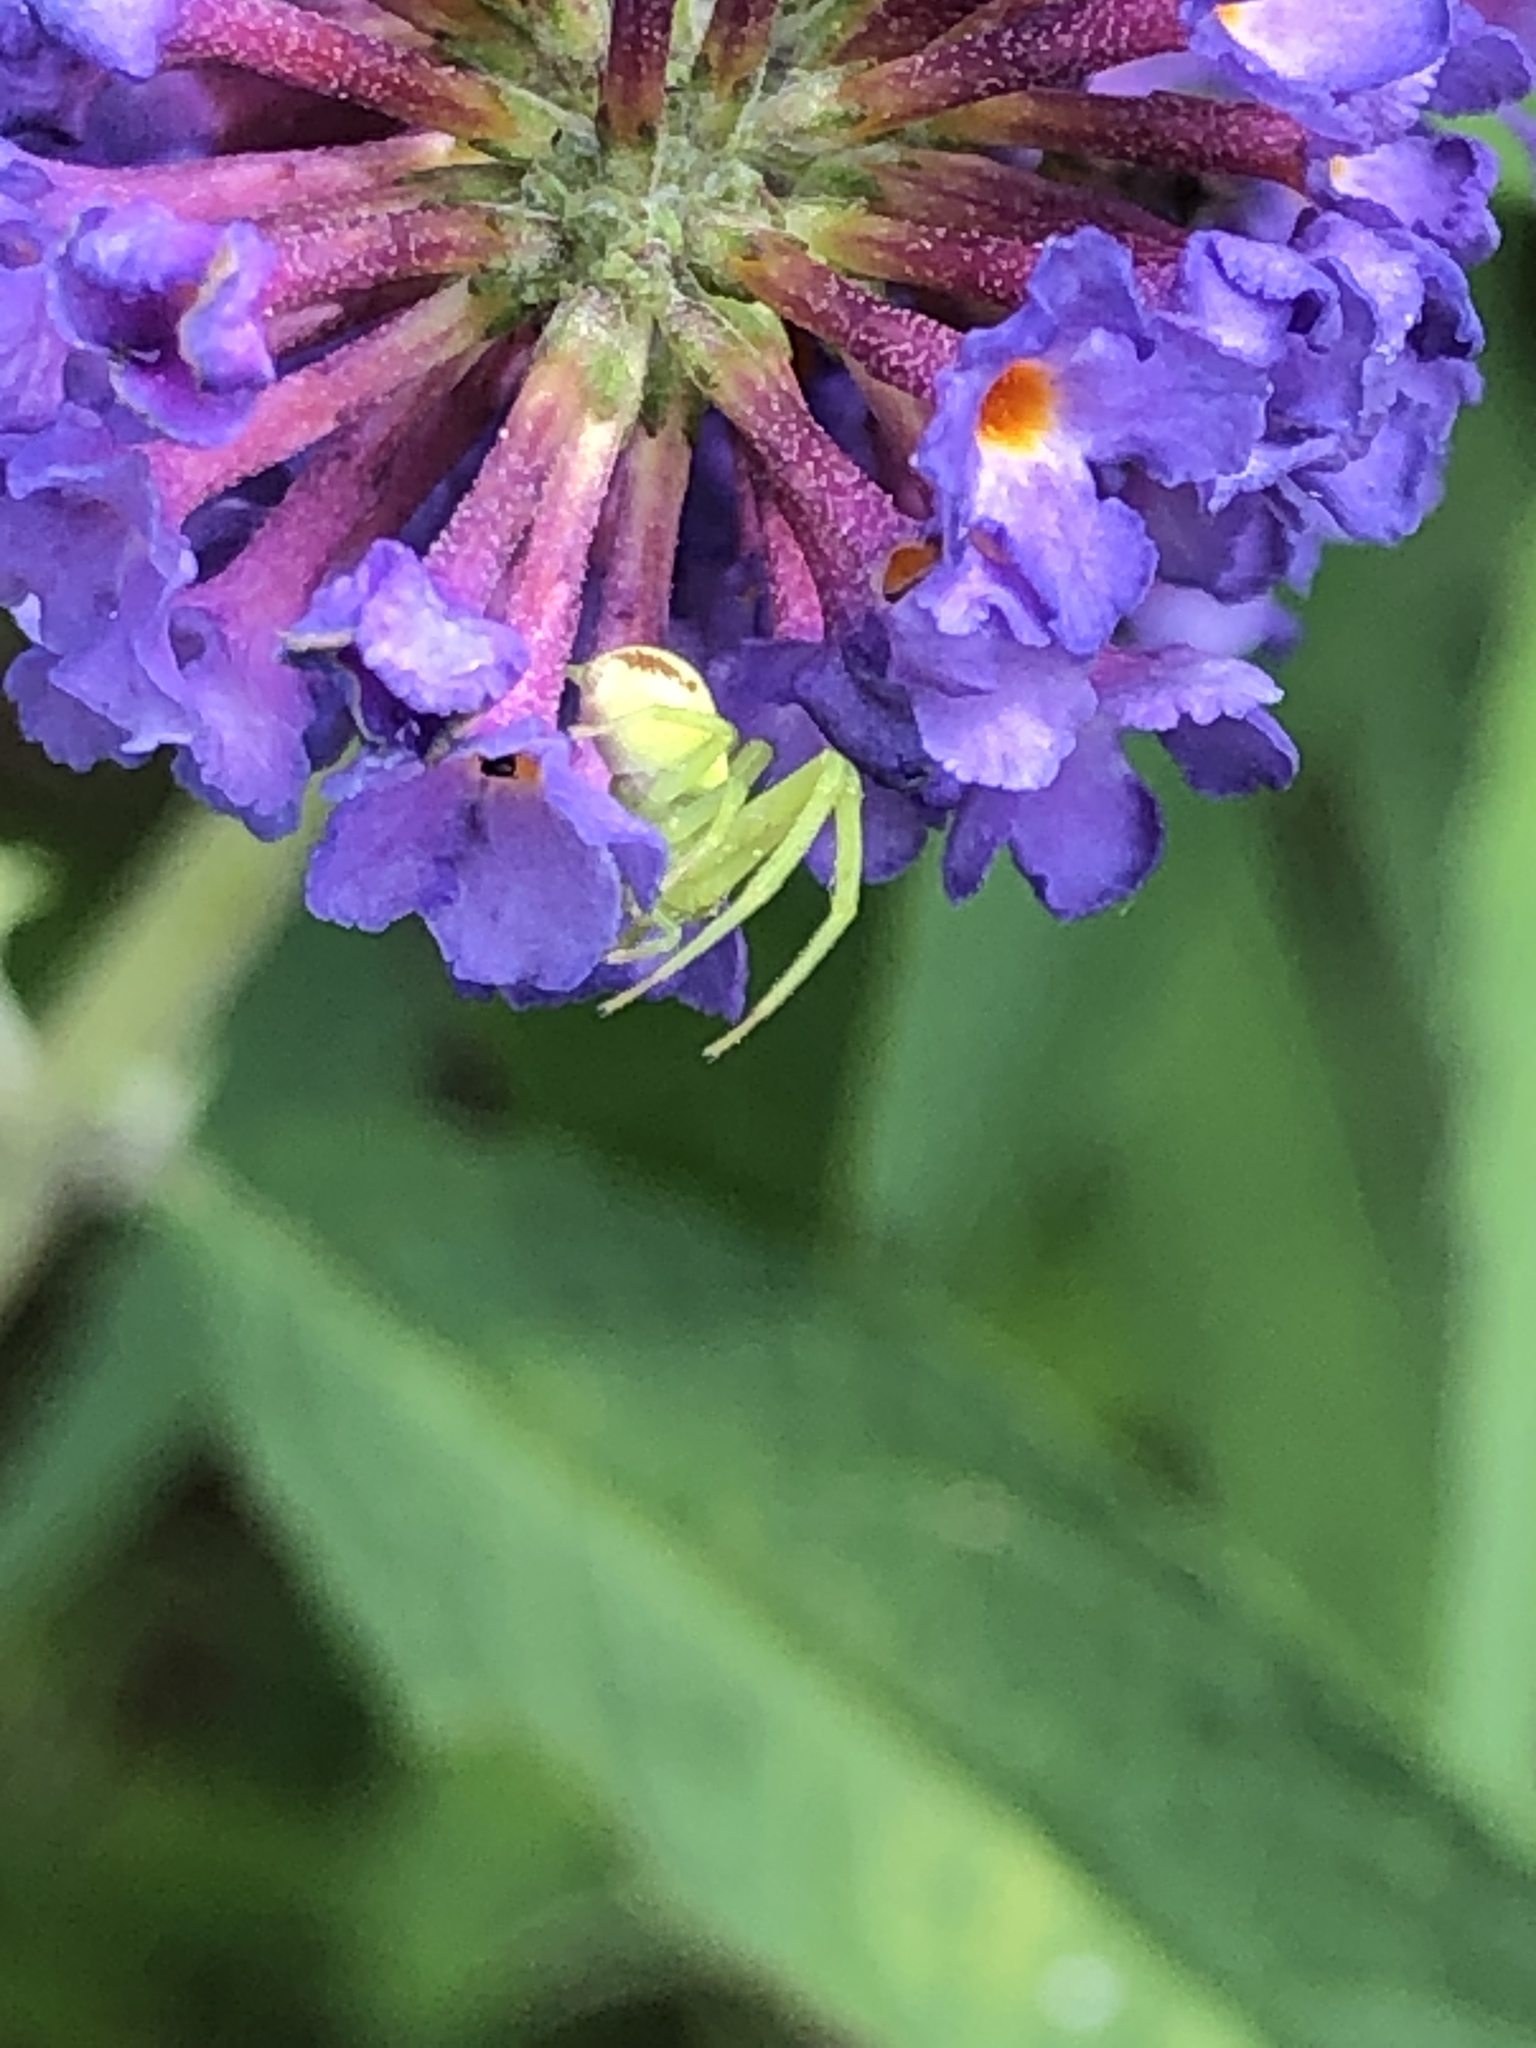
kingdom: Animalia
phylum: Arthropoda
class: Arachnida
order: Araneae
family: Thomisidae
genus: Ebrechtella
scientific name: Ebrechtella tricuspidata
